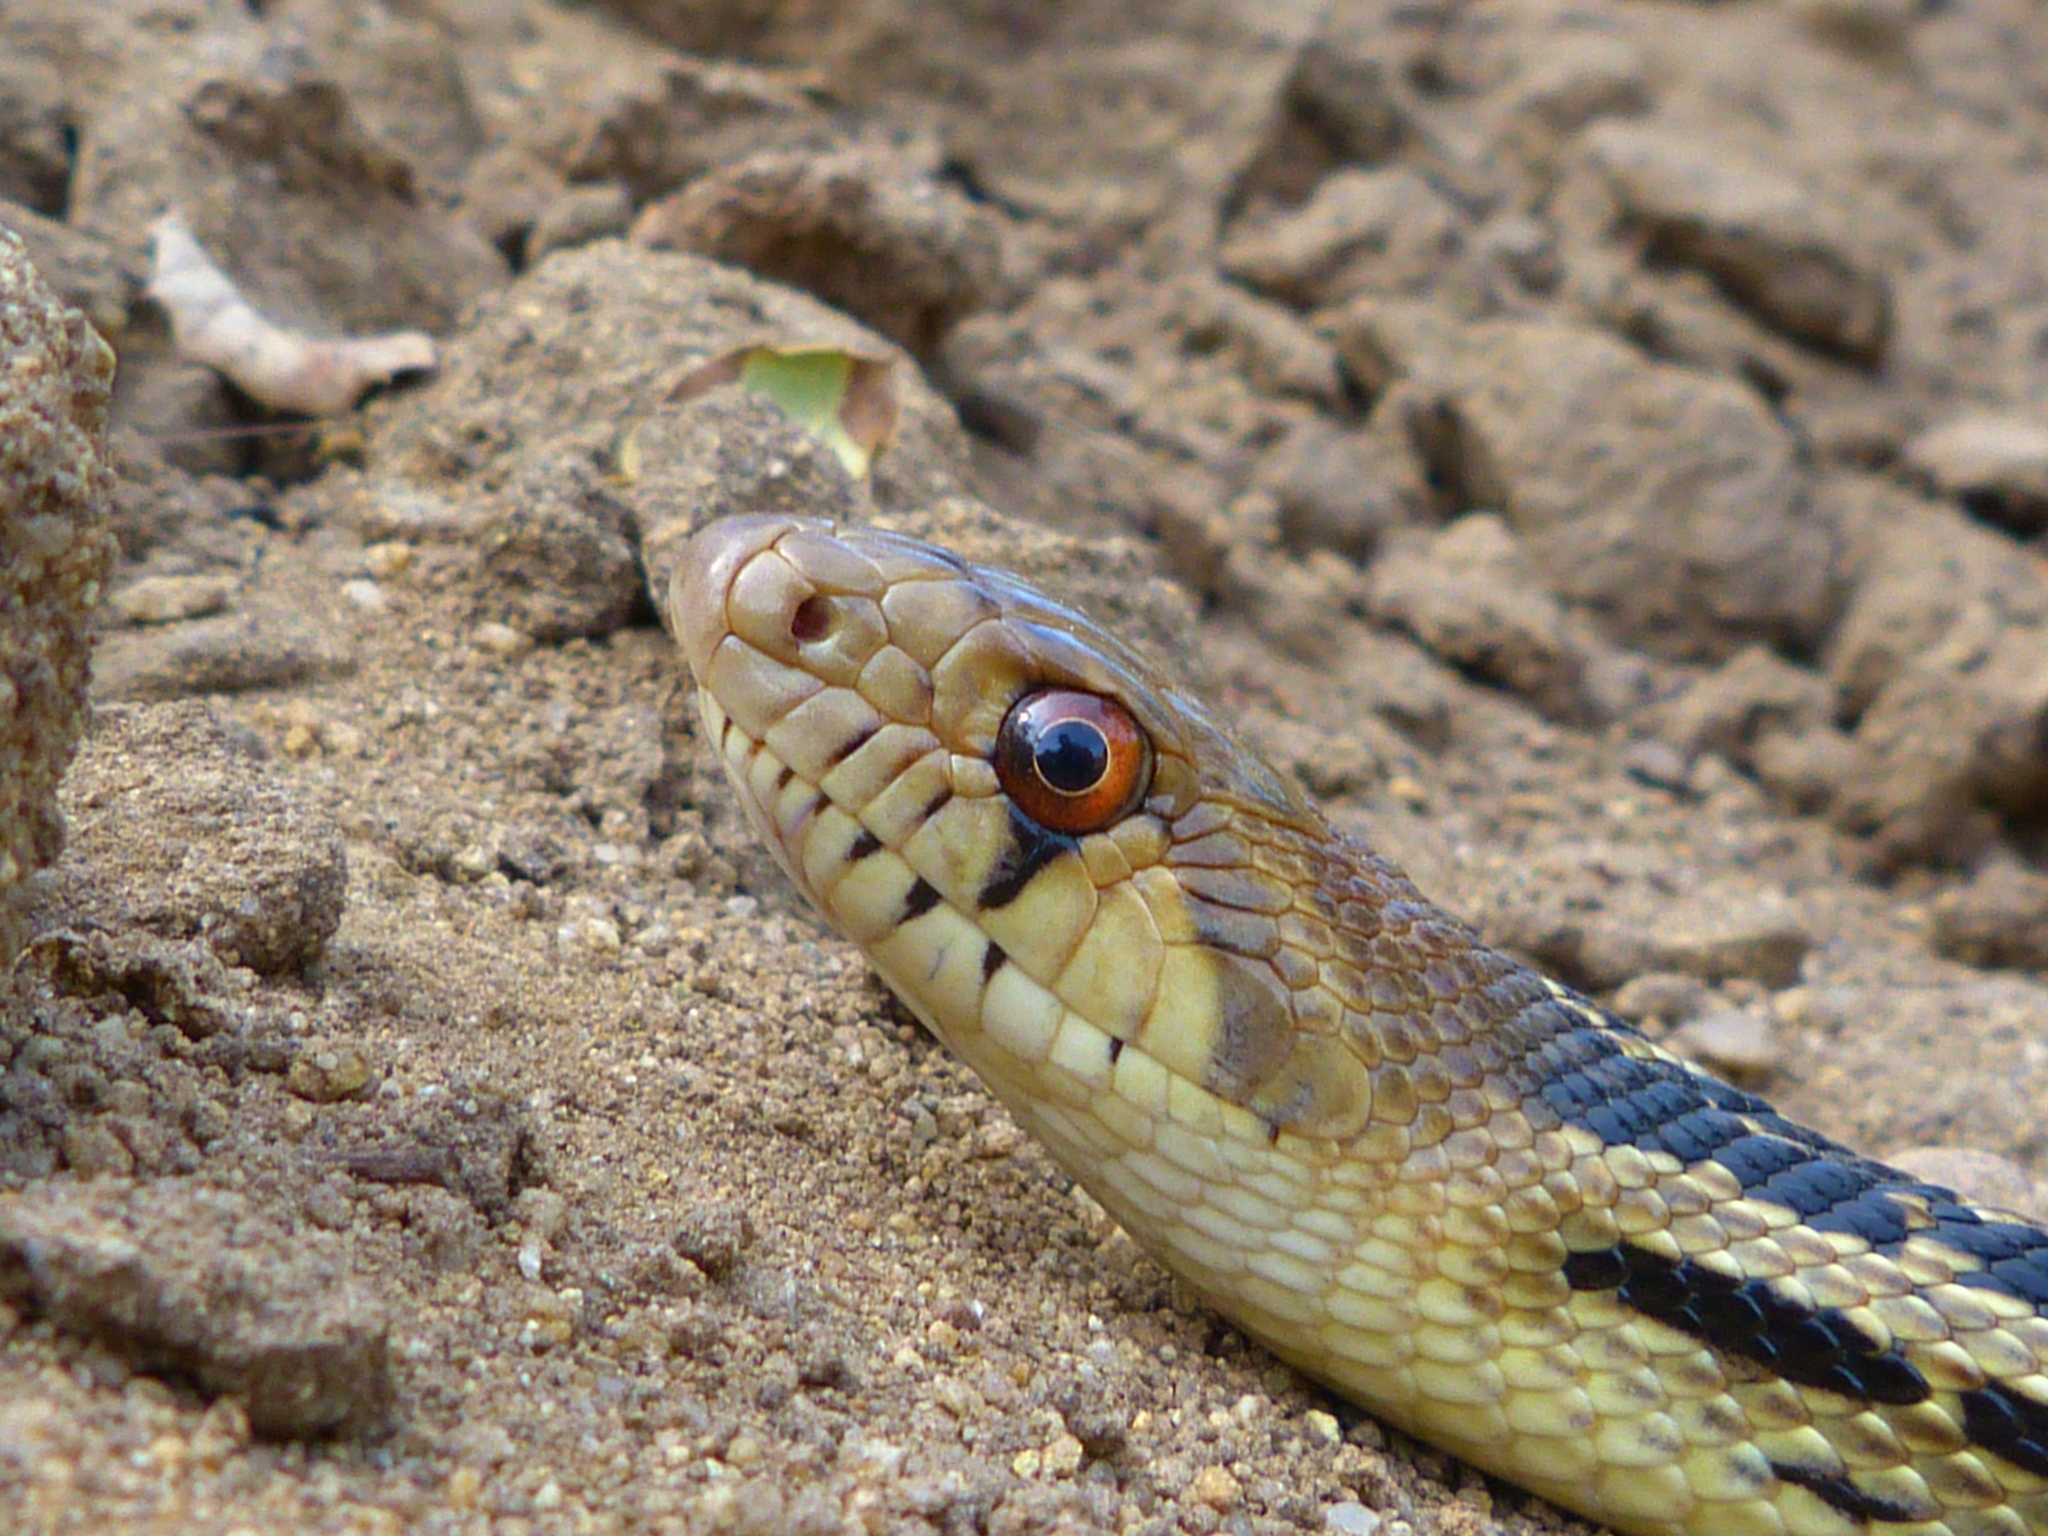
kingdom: Animalia
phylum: Chordata
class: Squamata
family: Colubridae
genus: Pituophis
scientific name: Pituophis catenifer
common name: Gopher snake
